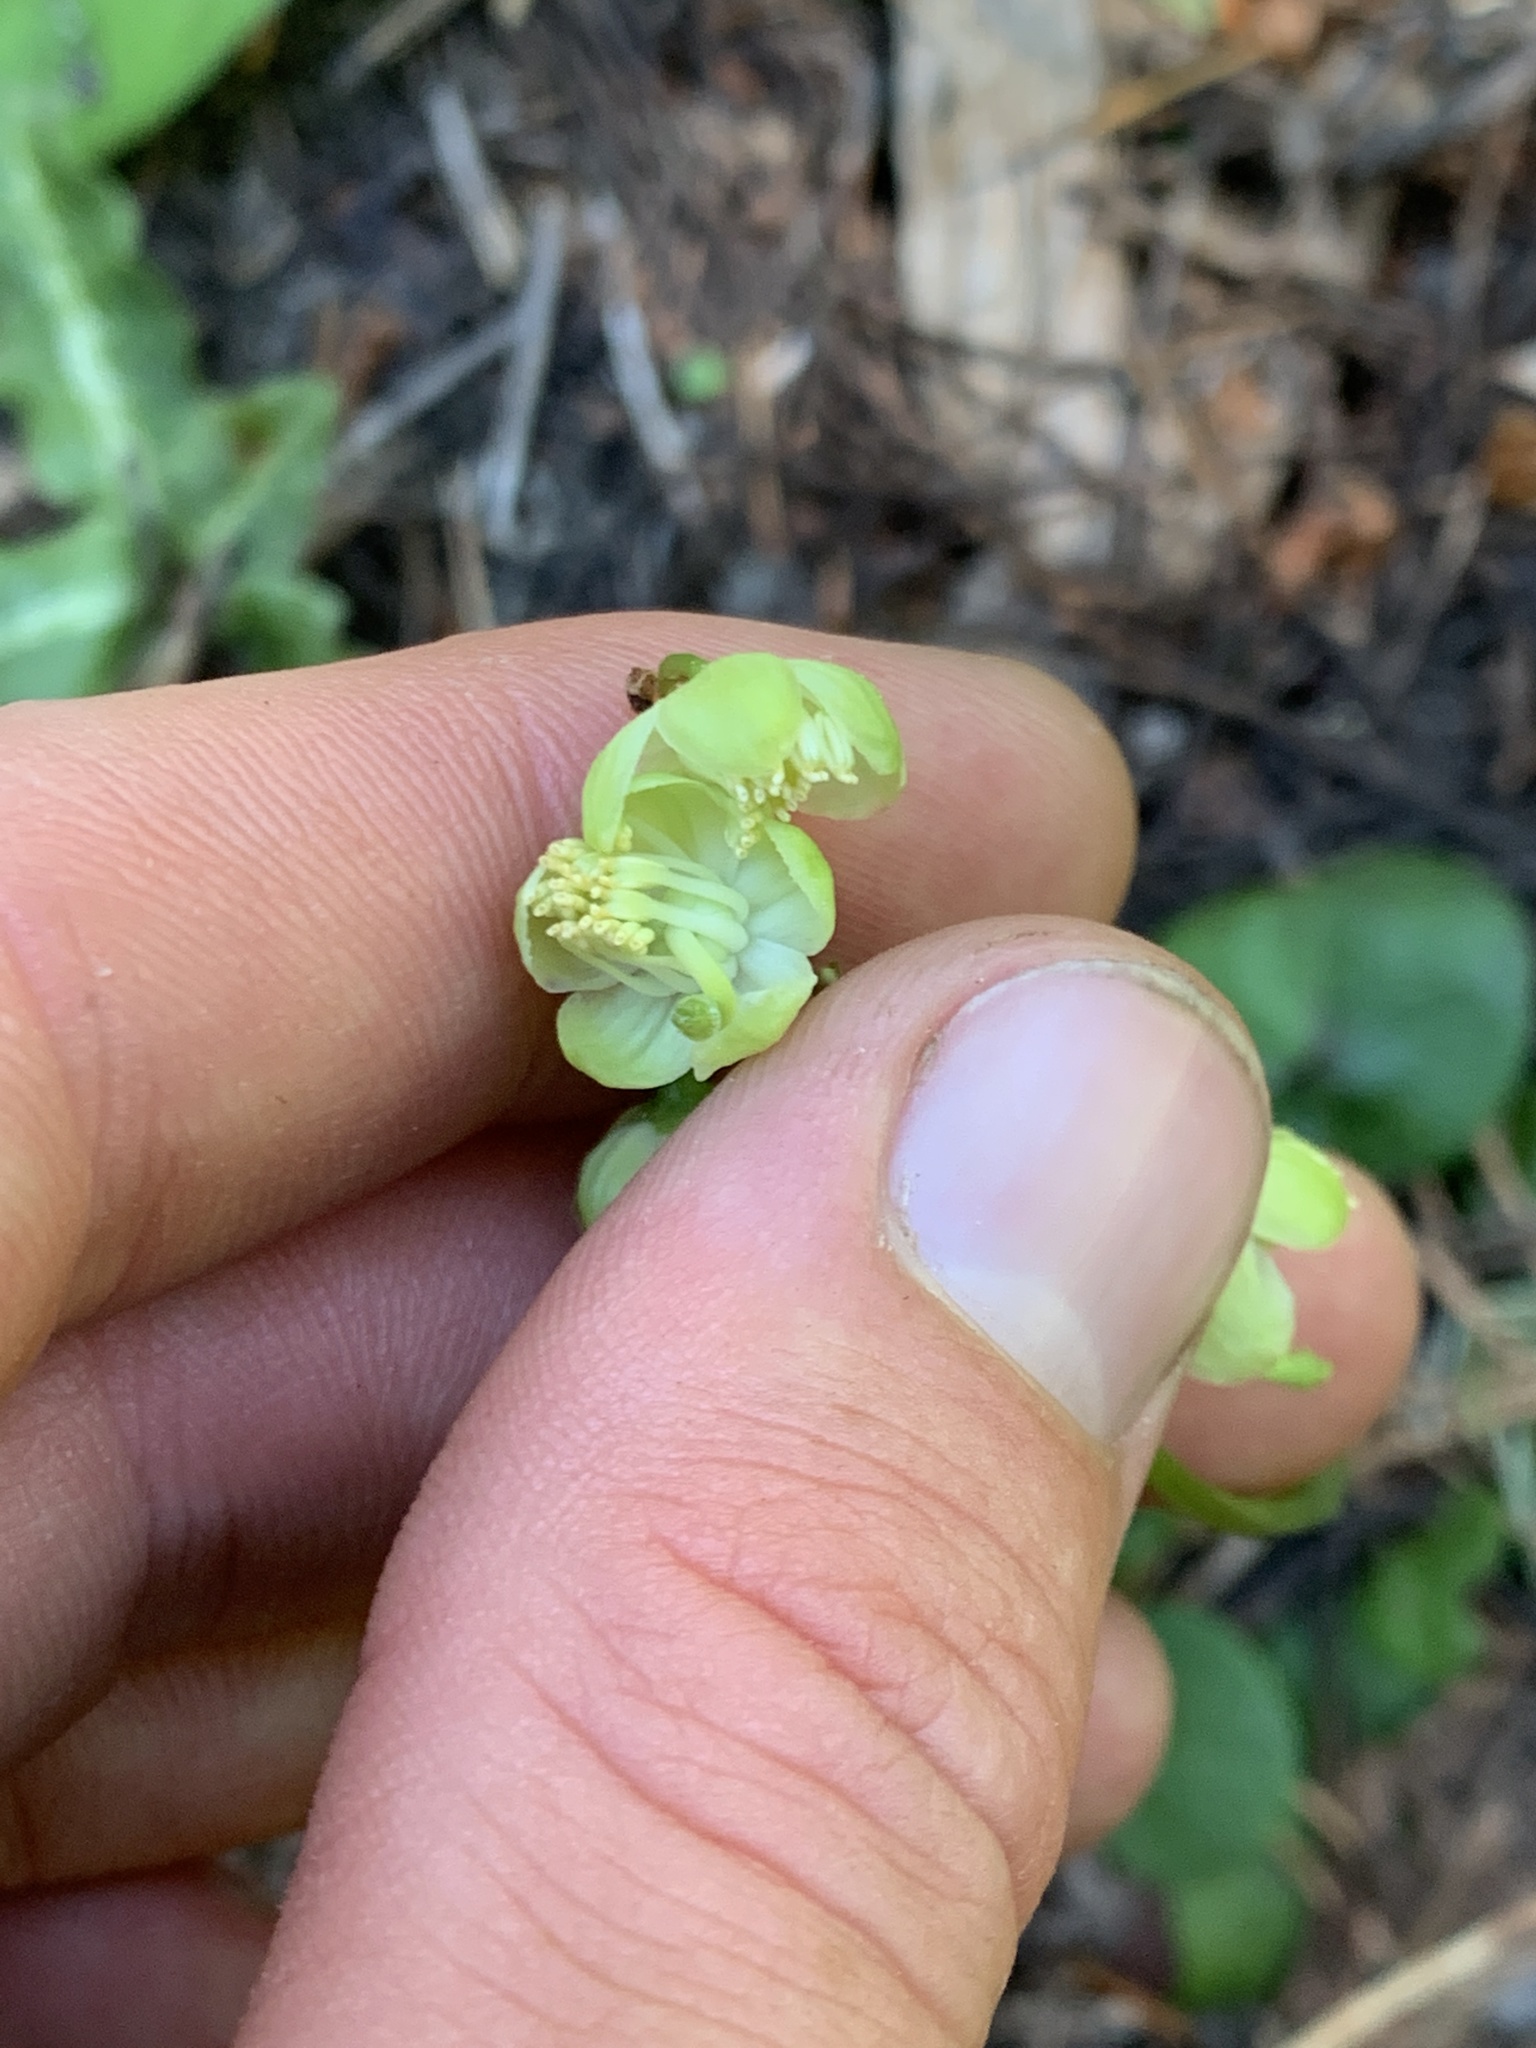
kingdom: Plantae
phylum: Tracheophyta
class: Magnoliopsida
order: Ericales
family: Ericaceae
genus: Pyrola
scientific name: Pyrola chlorantha
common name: Green wintergreen
